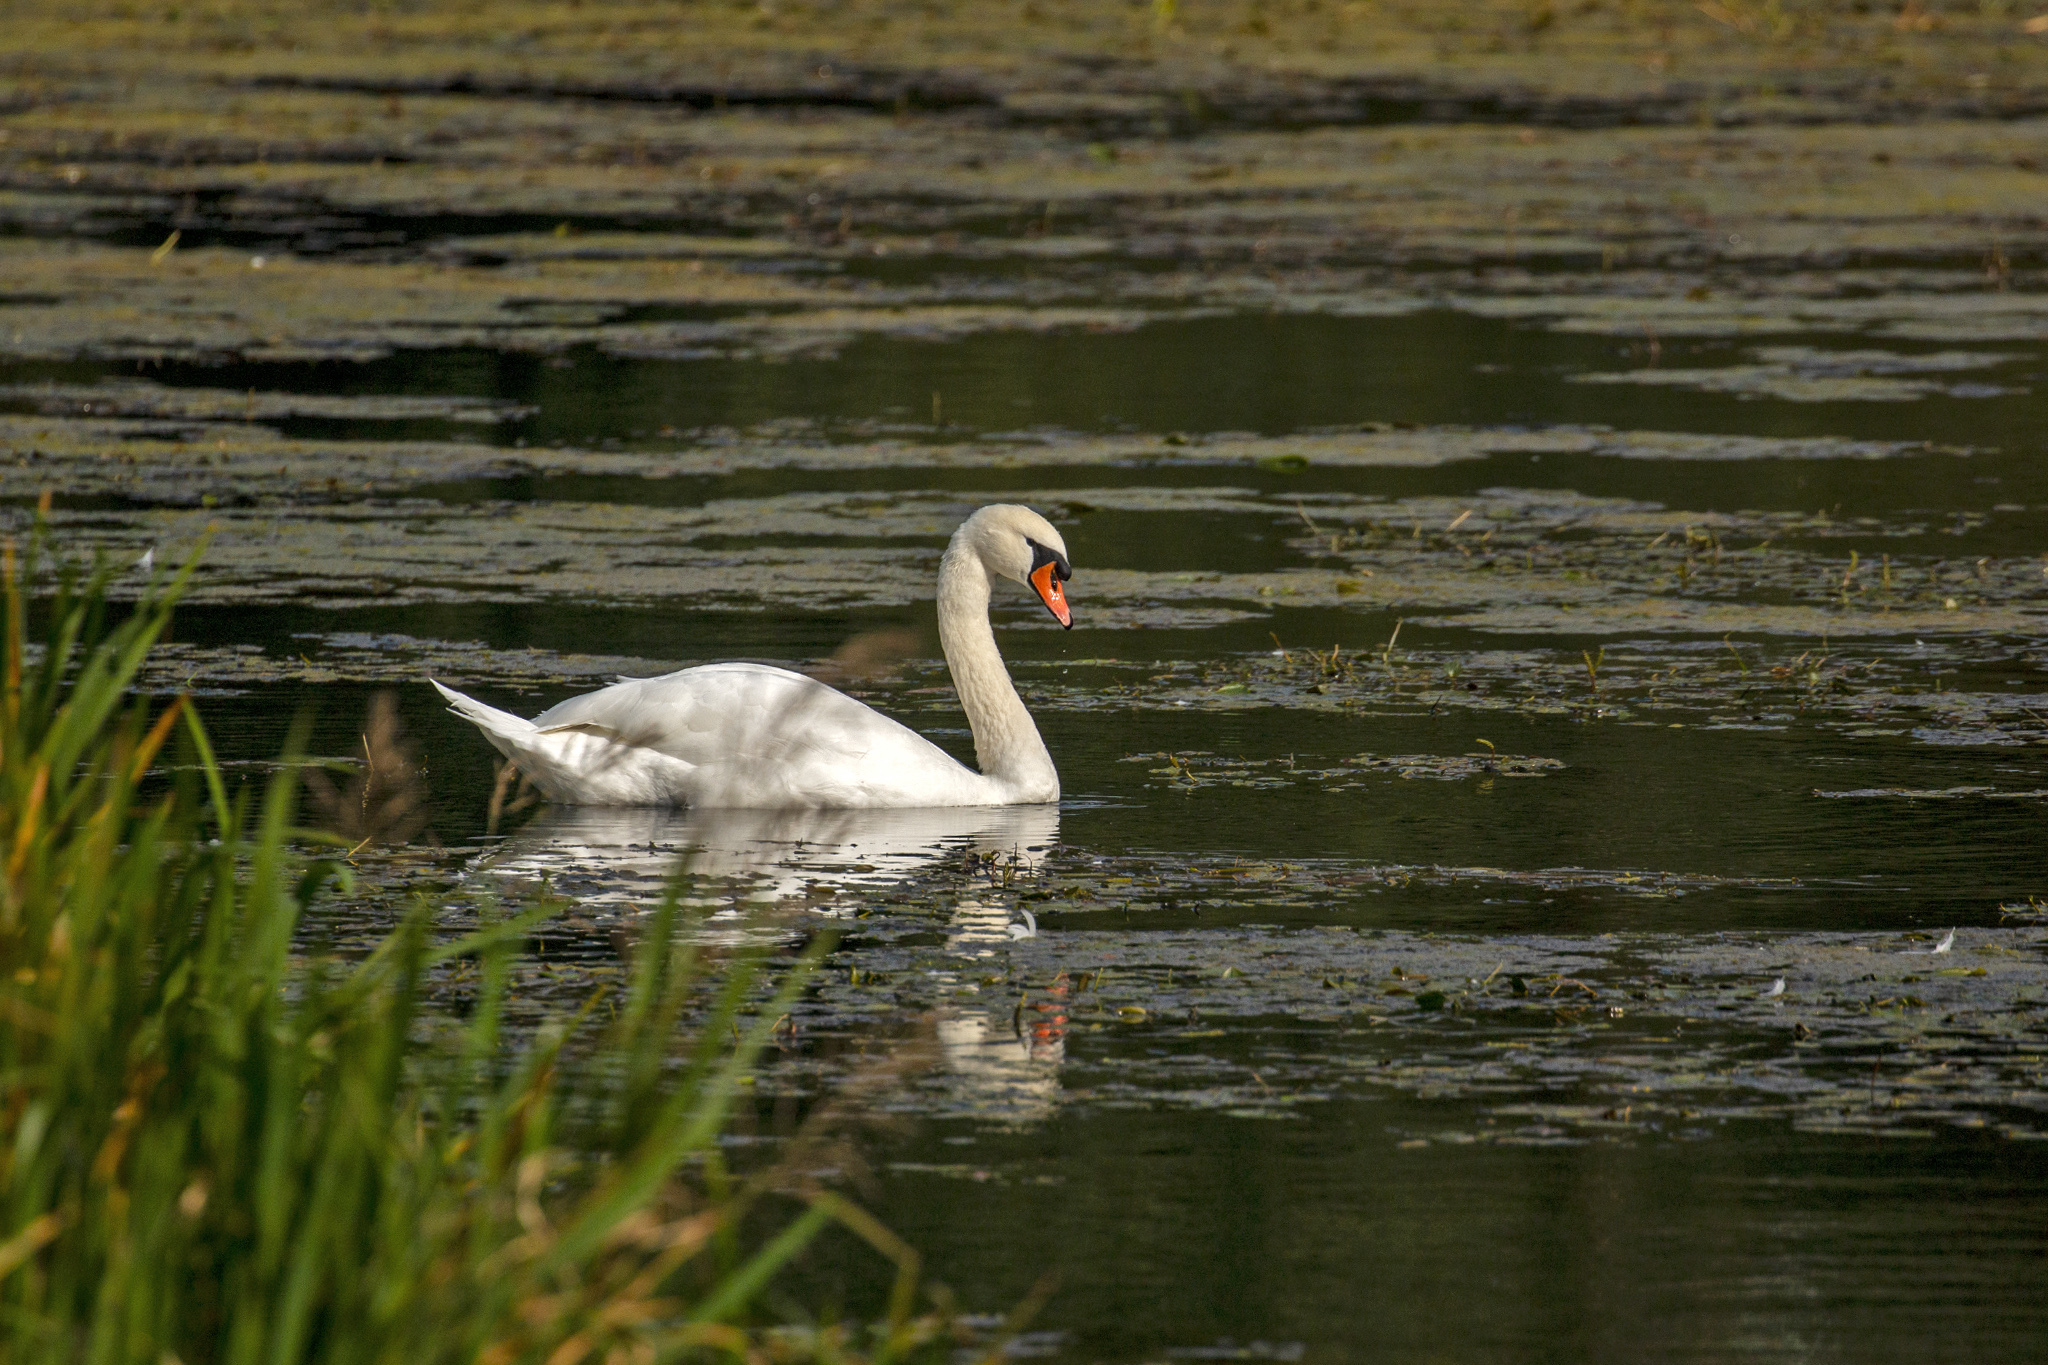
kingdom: Animalia
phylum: Chordata
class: Aves
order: Anseriformes
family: Anatidae
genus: Cygnus
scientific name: Cygnus olor
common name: Mute swan
